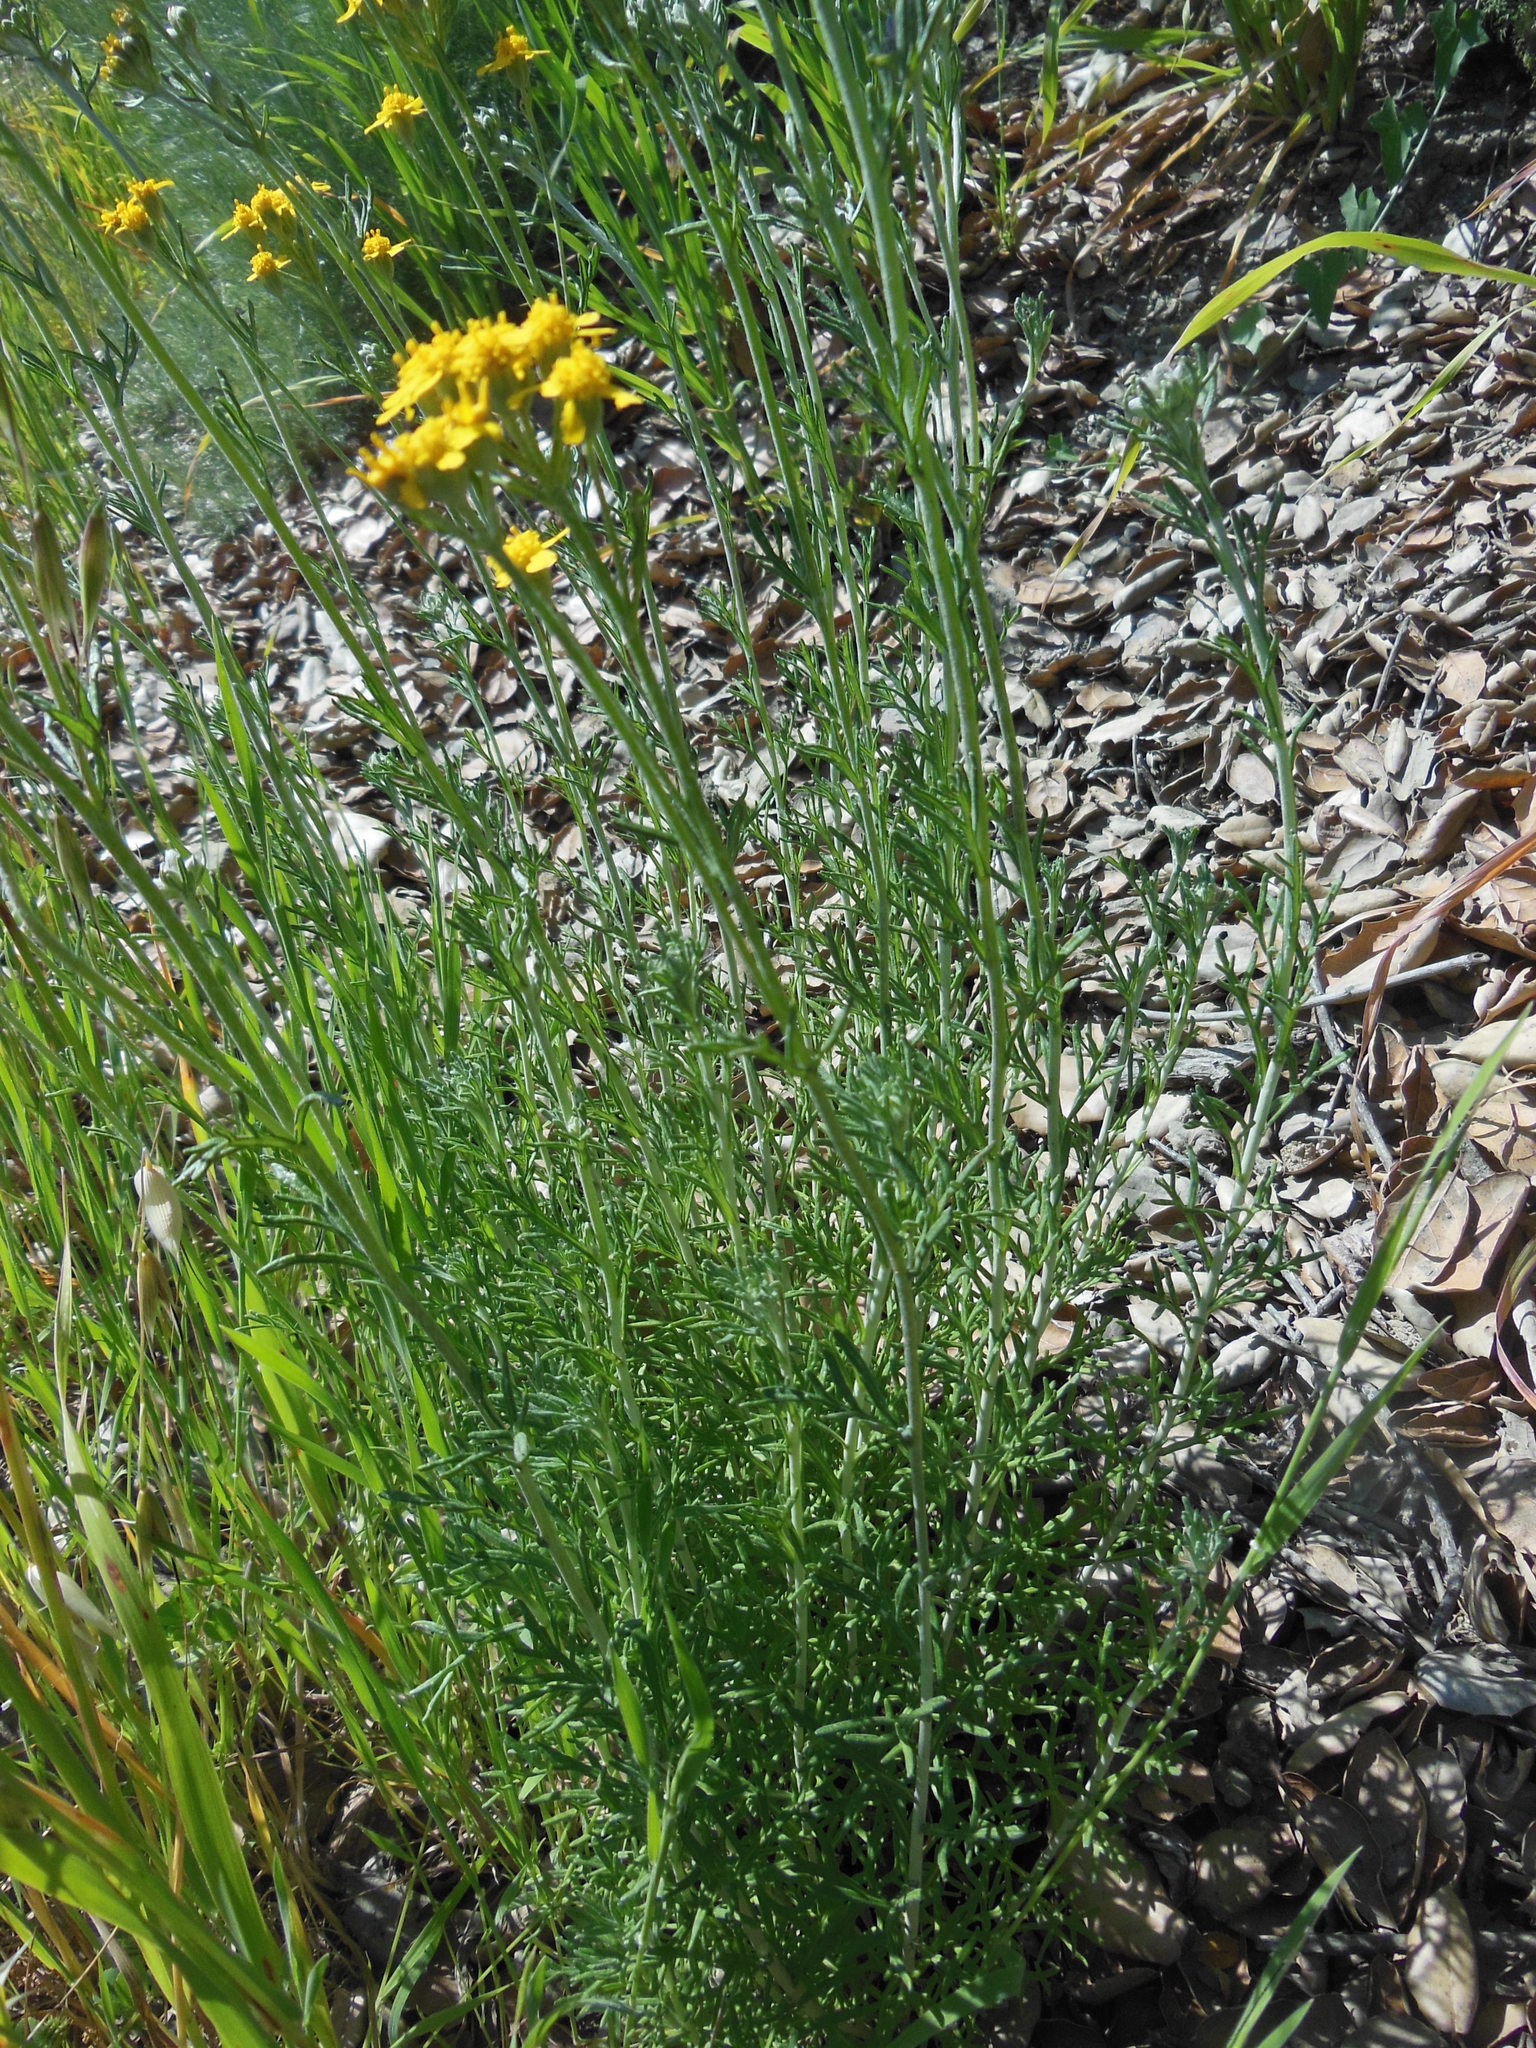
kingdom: Plantae
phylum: Tracheophyta
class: Magnoliopsida
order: Asterales
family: Asteraceae
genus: Eriophyllum
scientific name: Eriophyllum confertiflorum
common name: Golden-yarrow
